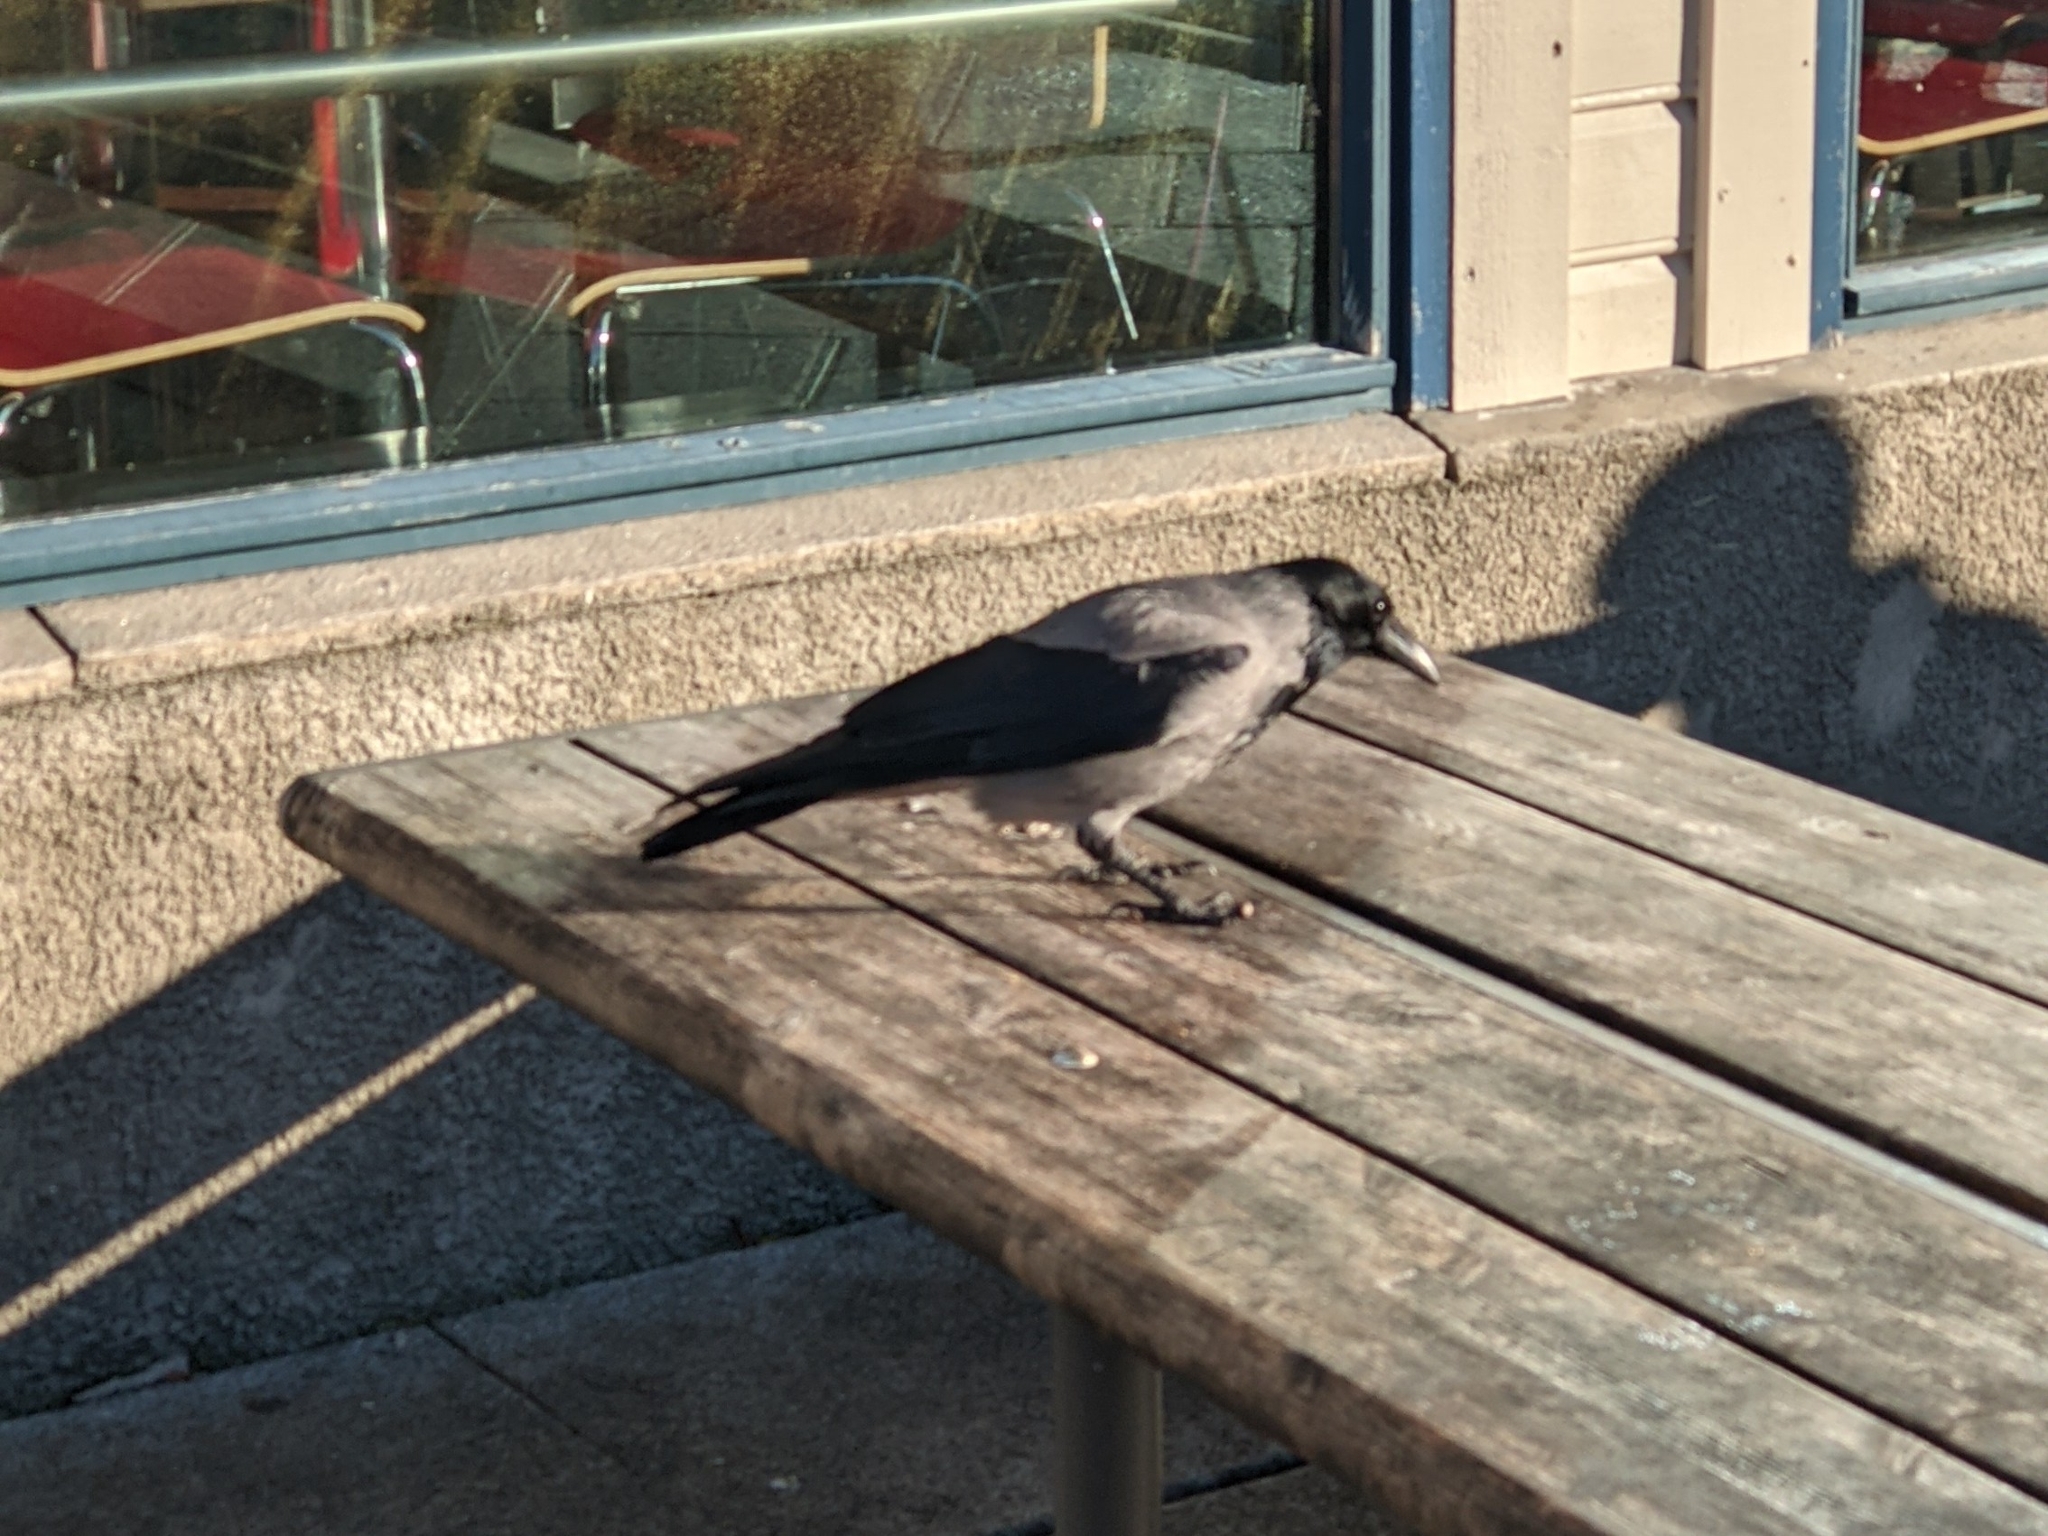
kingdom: Animalia
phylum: Chordata
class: Aves
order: Passeriformes
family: Corvidae
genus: Corvus
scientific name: Corvus cornix
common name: Hooded crow
